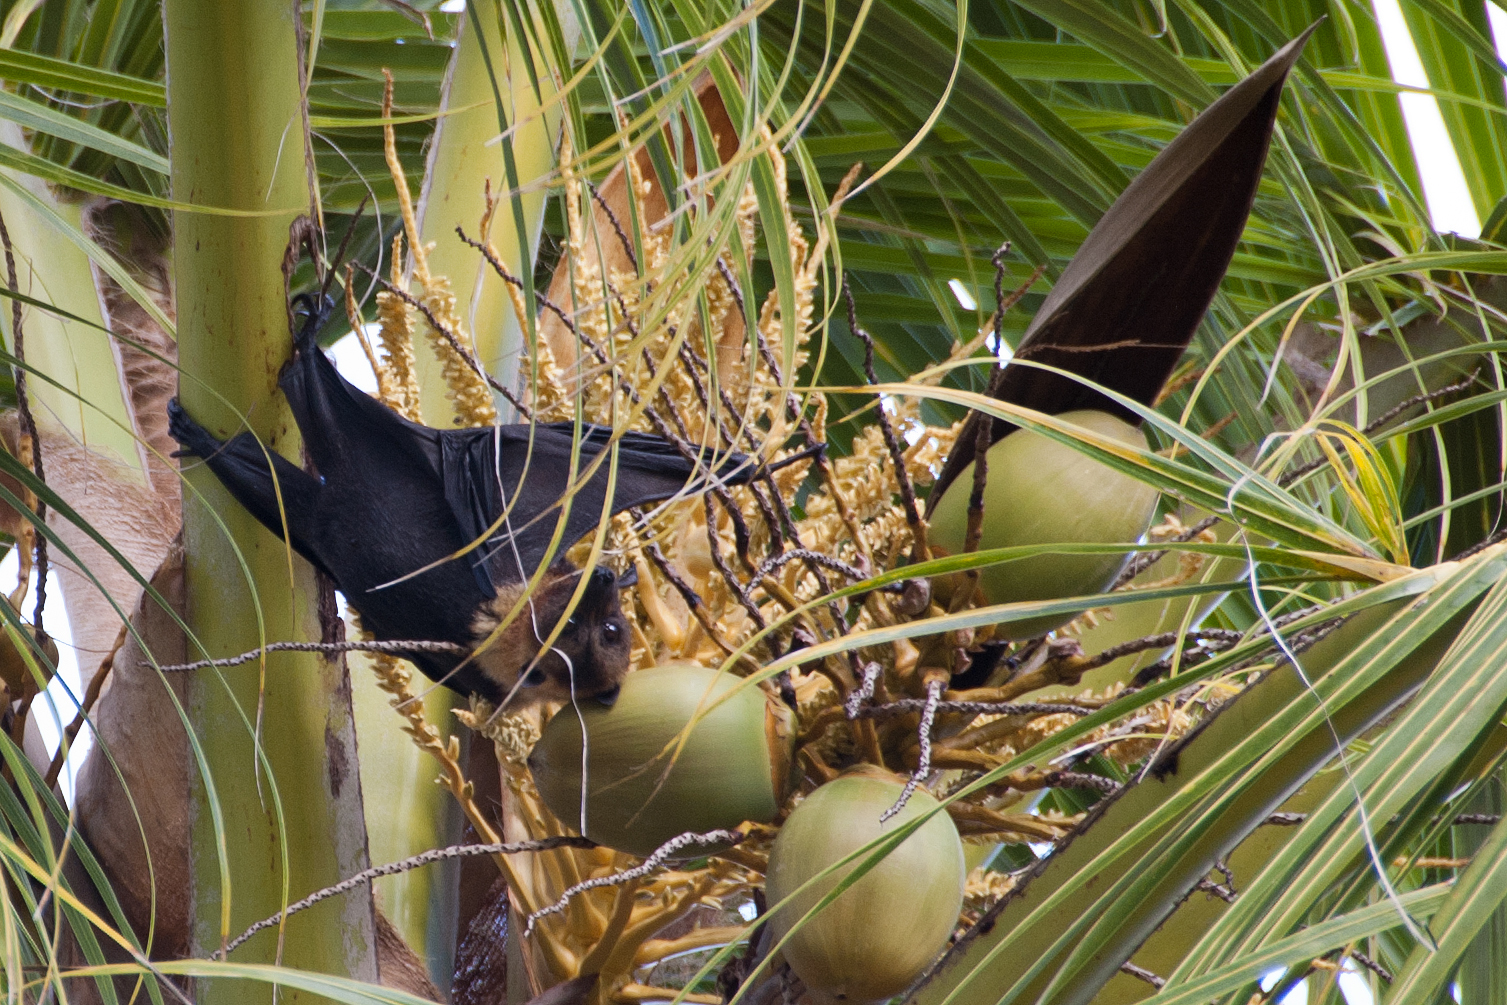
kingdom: Plantae
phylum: Tracheophyta
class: Liliopsida
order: Arecales
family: Arecaceae
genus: Cocos
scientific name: Cocos nucifera
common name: Coconut palm
